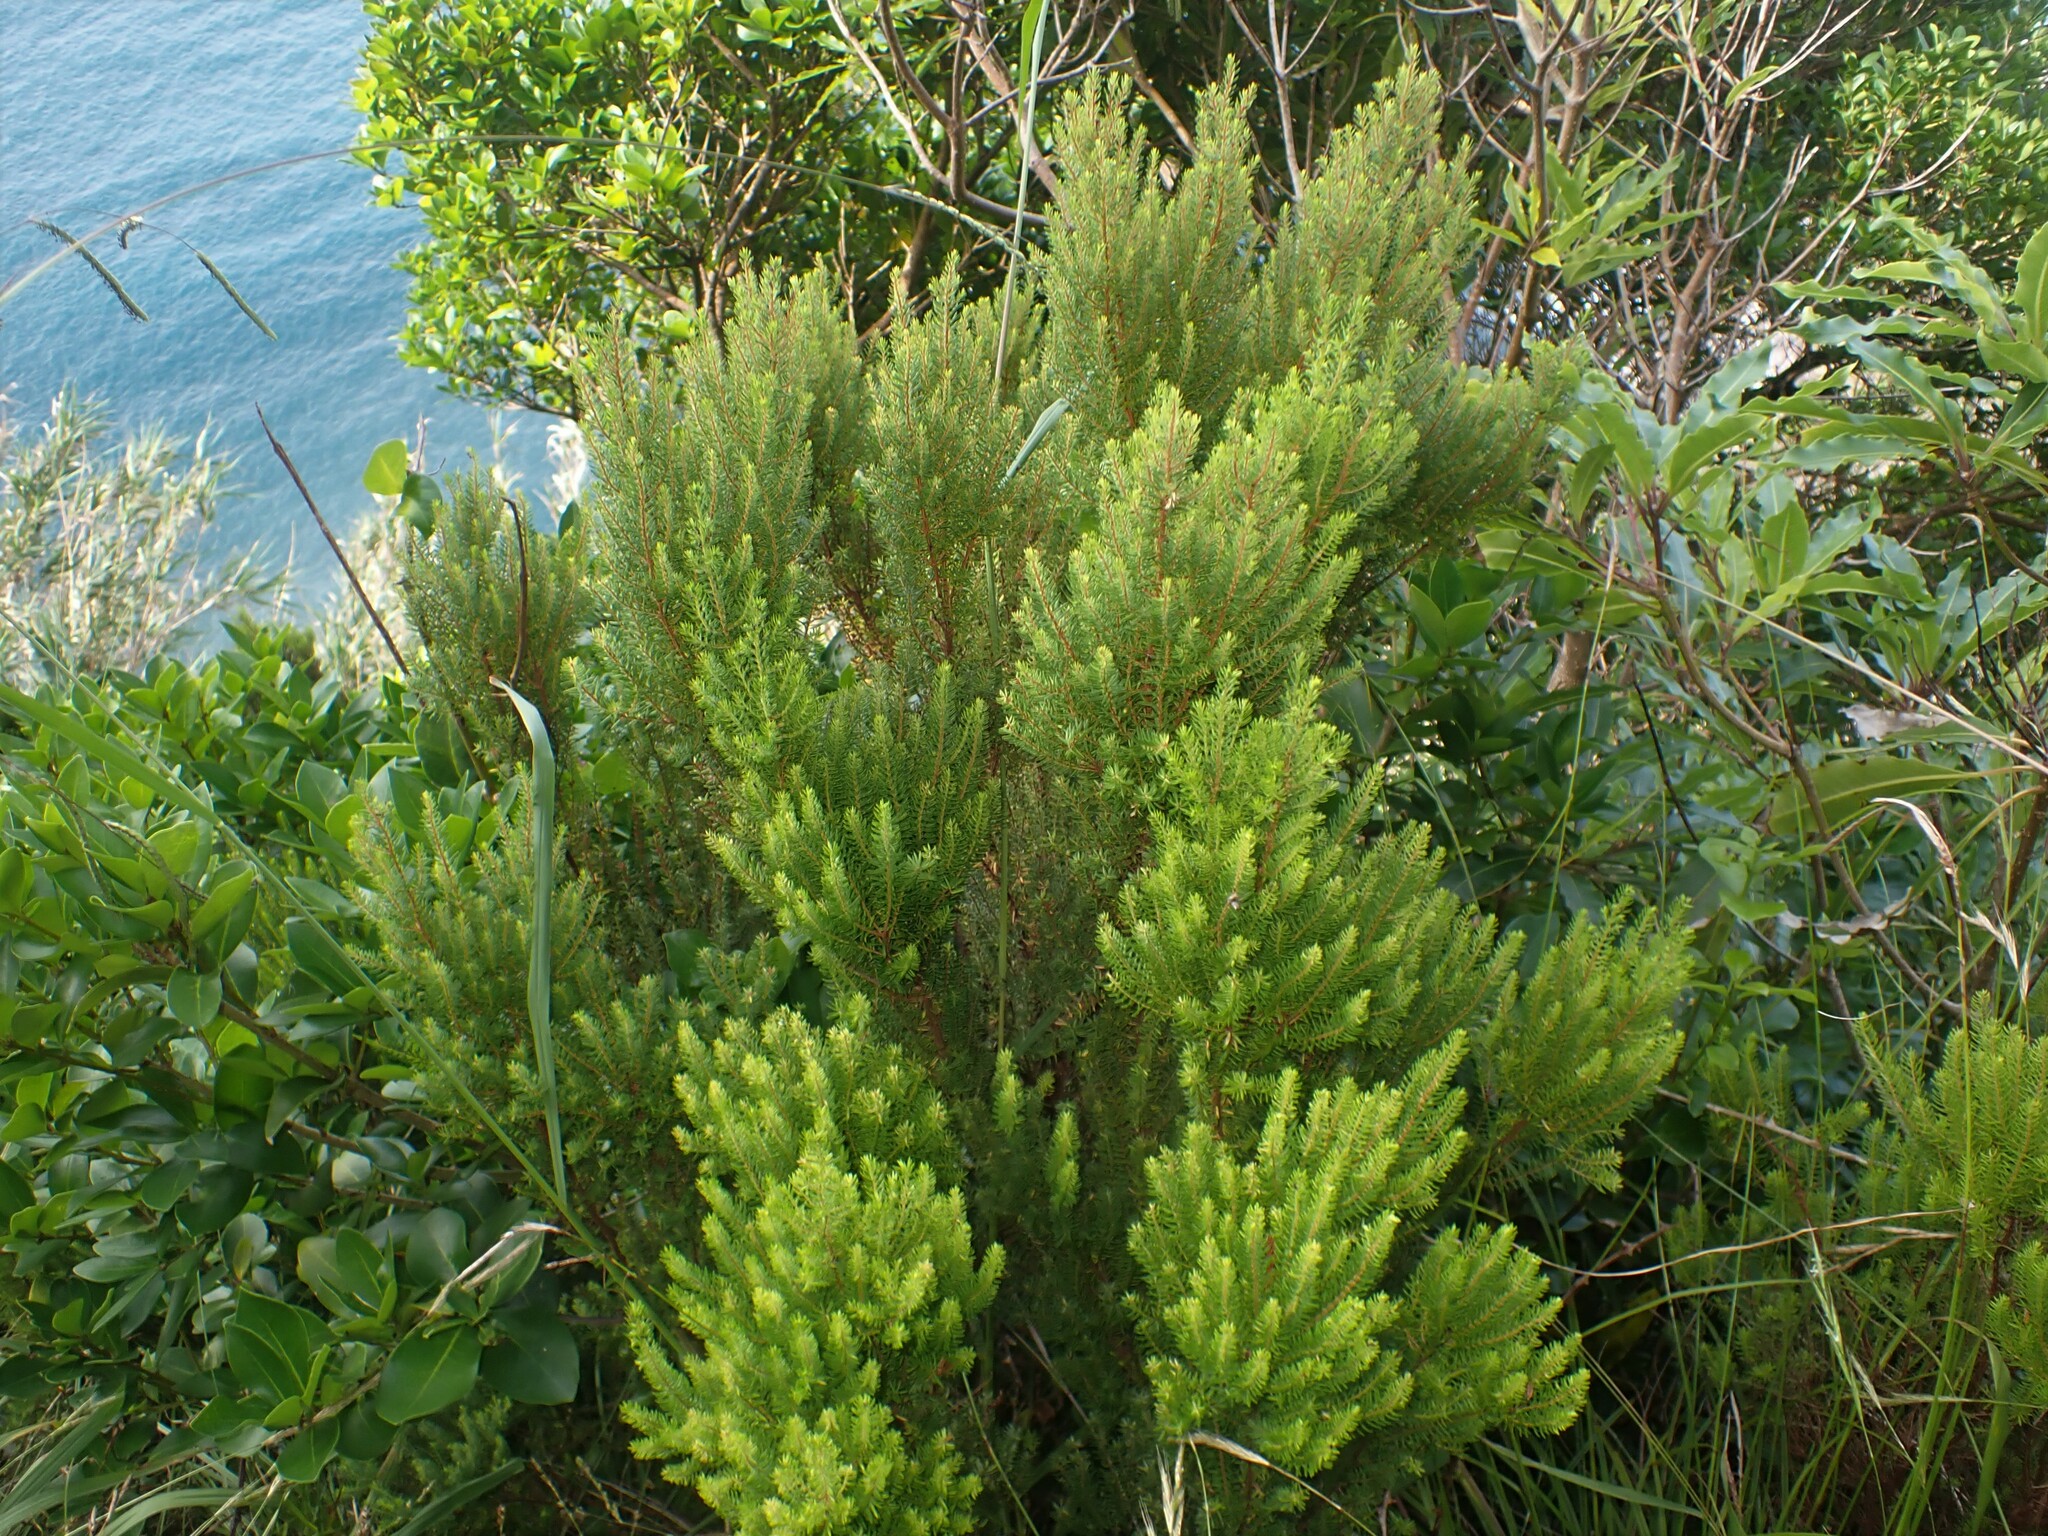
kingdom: Plantae
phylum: Tracheophyta
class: Magnoliopsida
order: Ericales
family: Ericaceae
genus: Erica
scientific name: Erica azorica
